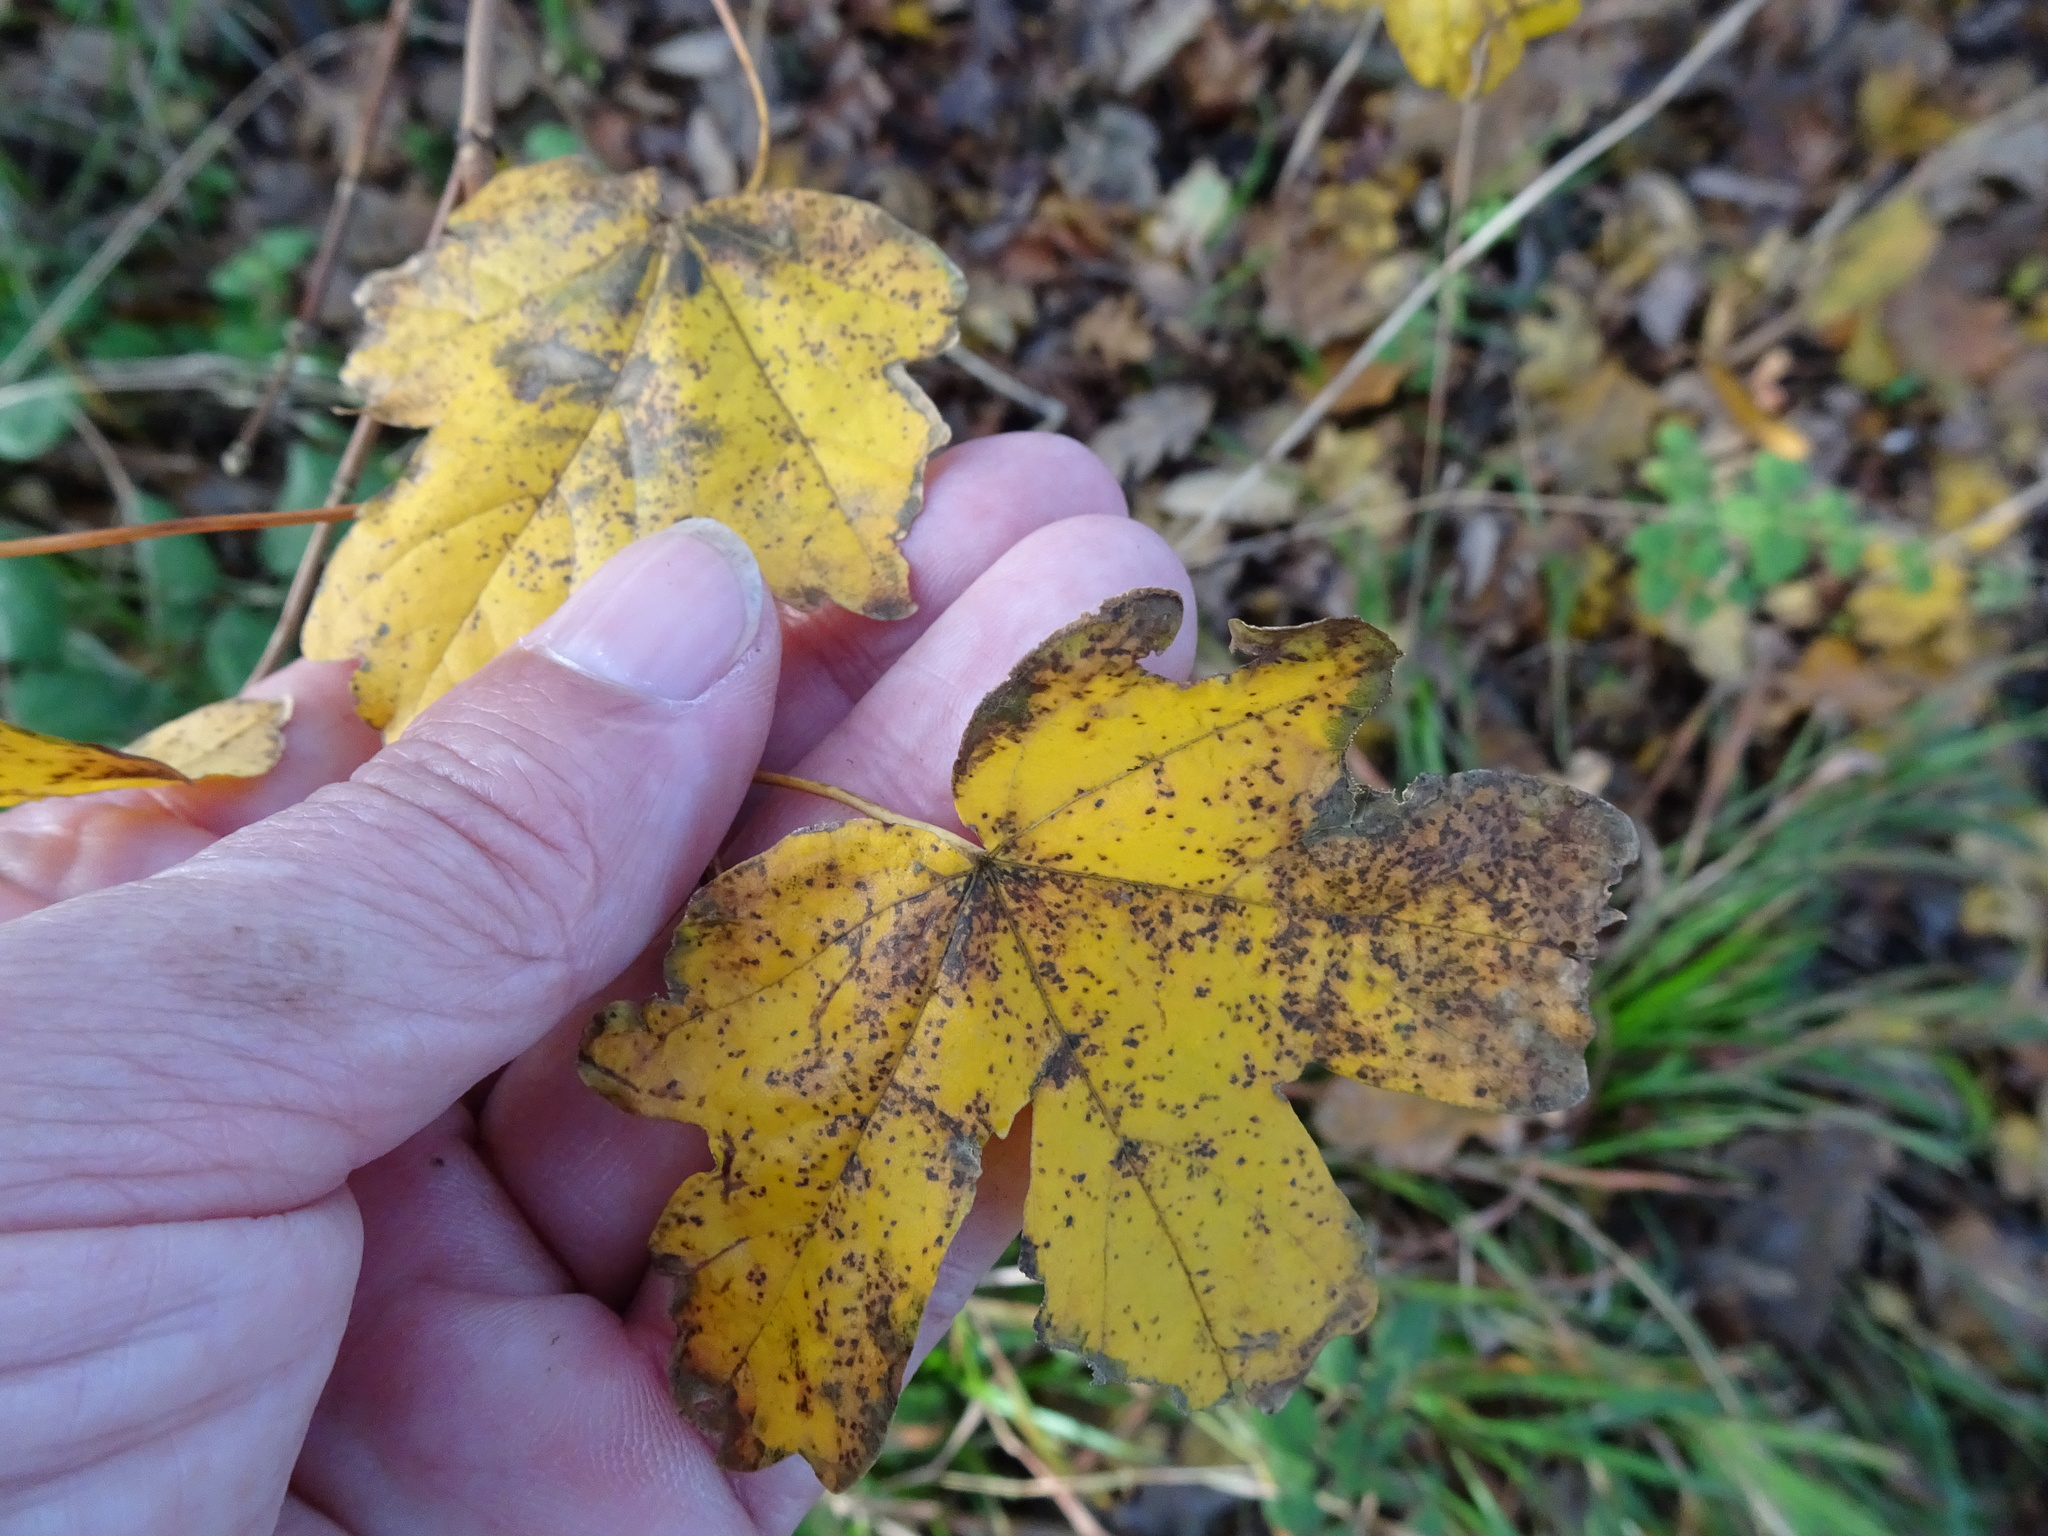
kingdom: Plantae
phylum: Tracheophyta
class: Magnoliopsida
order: Sapindales
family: Sapindaceae
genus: Acer
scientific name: Acer campestre
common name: Field maple
